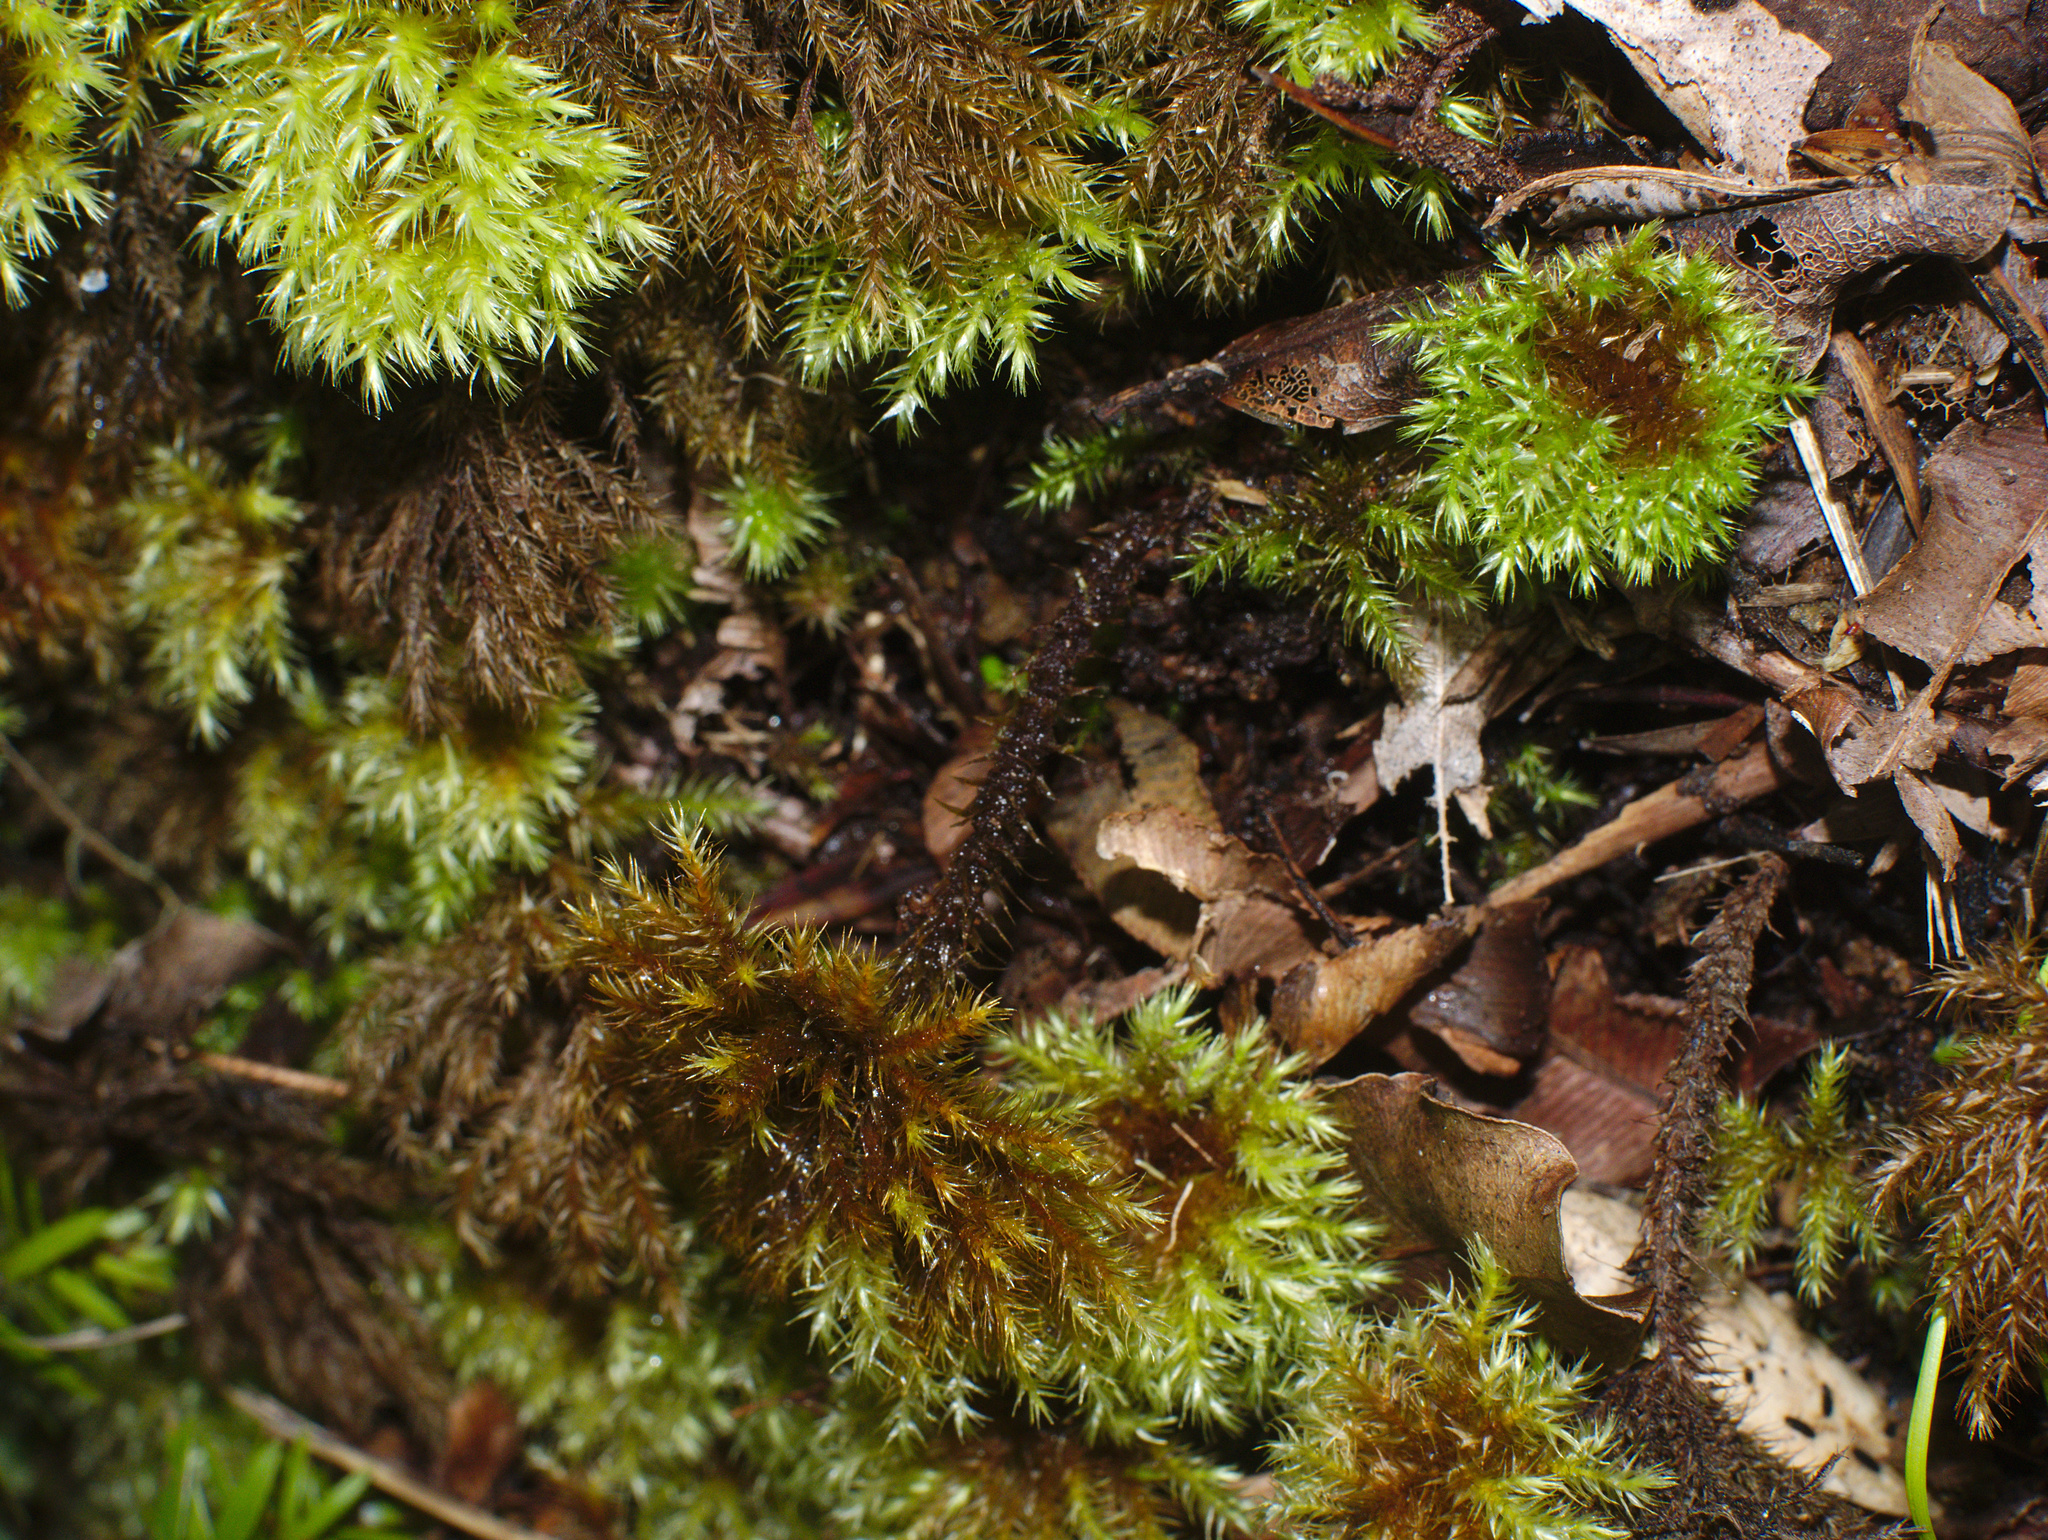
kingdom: Plantae
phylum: Bryophyta
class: Bryopsida
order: Hypnodendrales
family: Spiridentaceae
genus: Mniodendron
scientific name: Mniodendron colensoi
